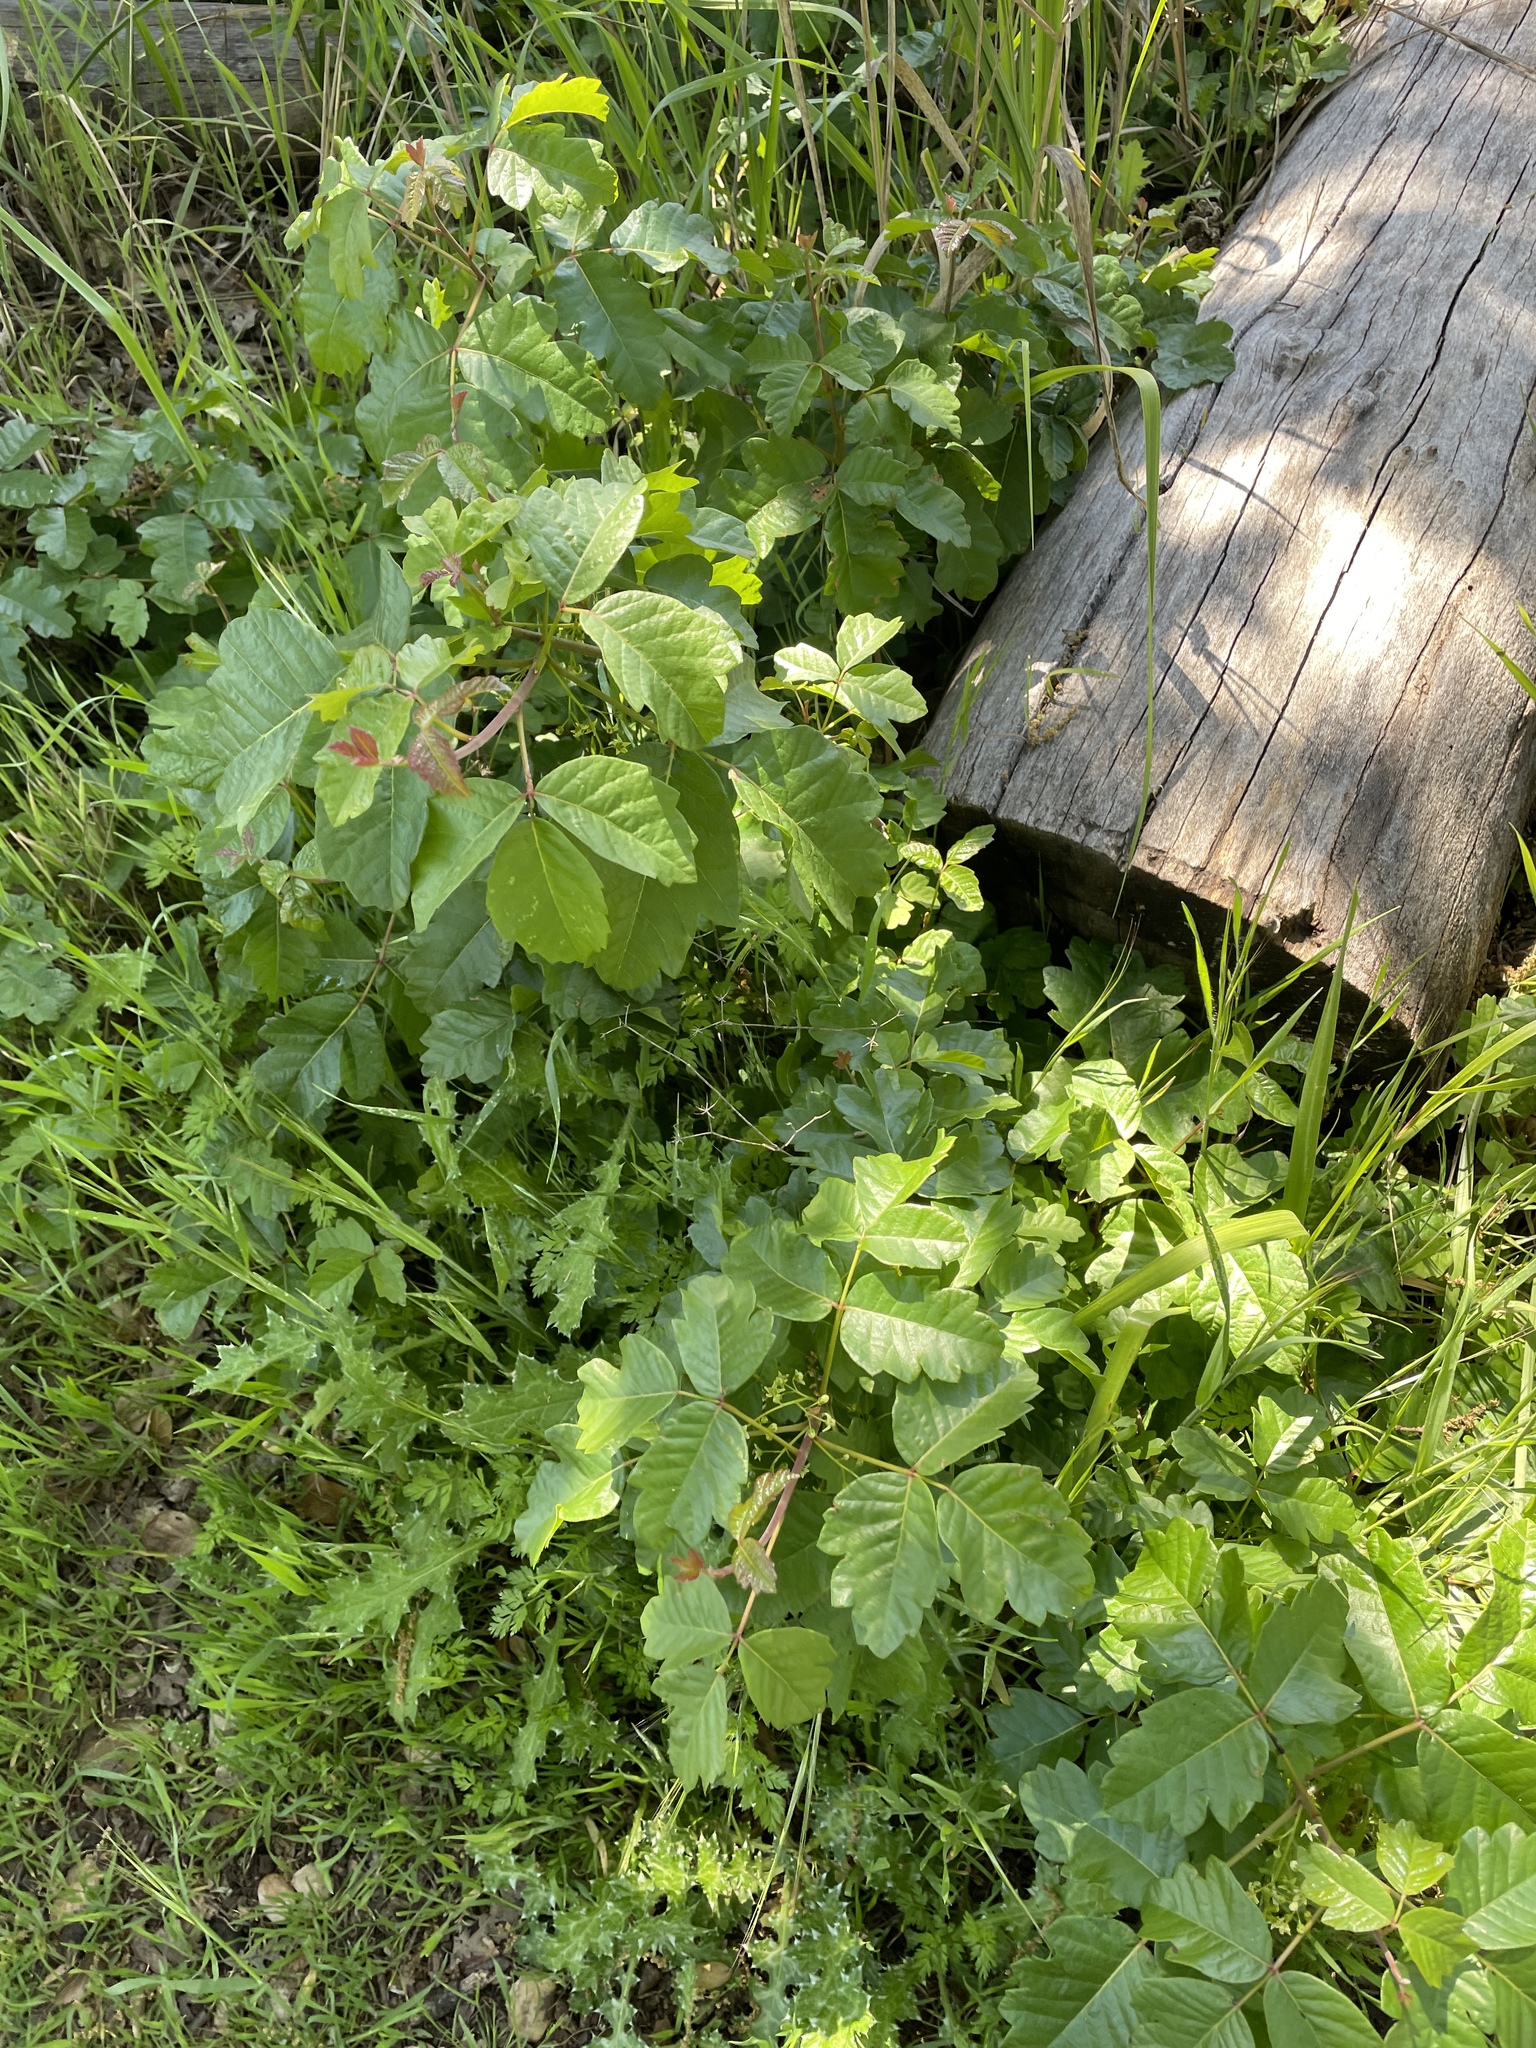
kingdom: Plantae
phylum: Tracheophyta
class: Magnoliopsida
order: Sapindales
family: Anacardiaceae
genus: Toxicodendron
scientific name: Toxicodendron diversilobum
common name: Pacific poison-oak
